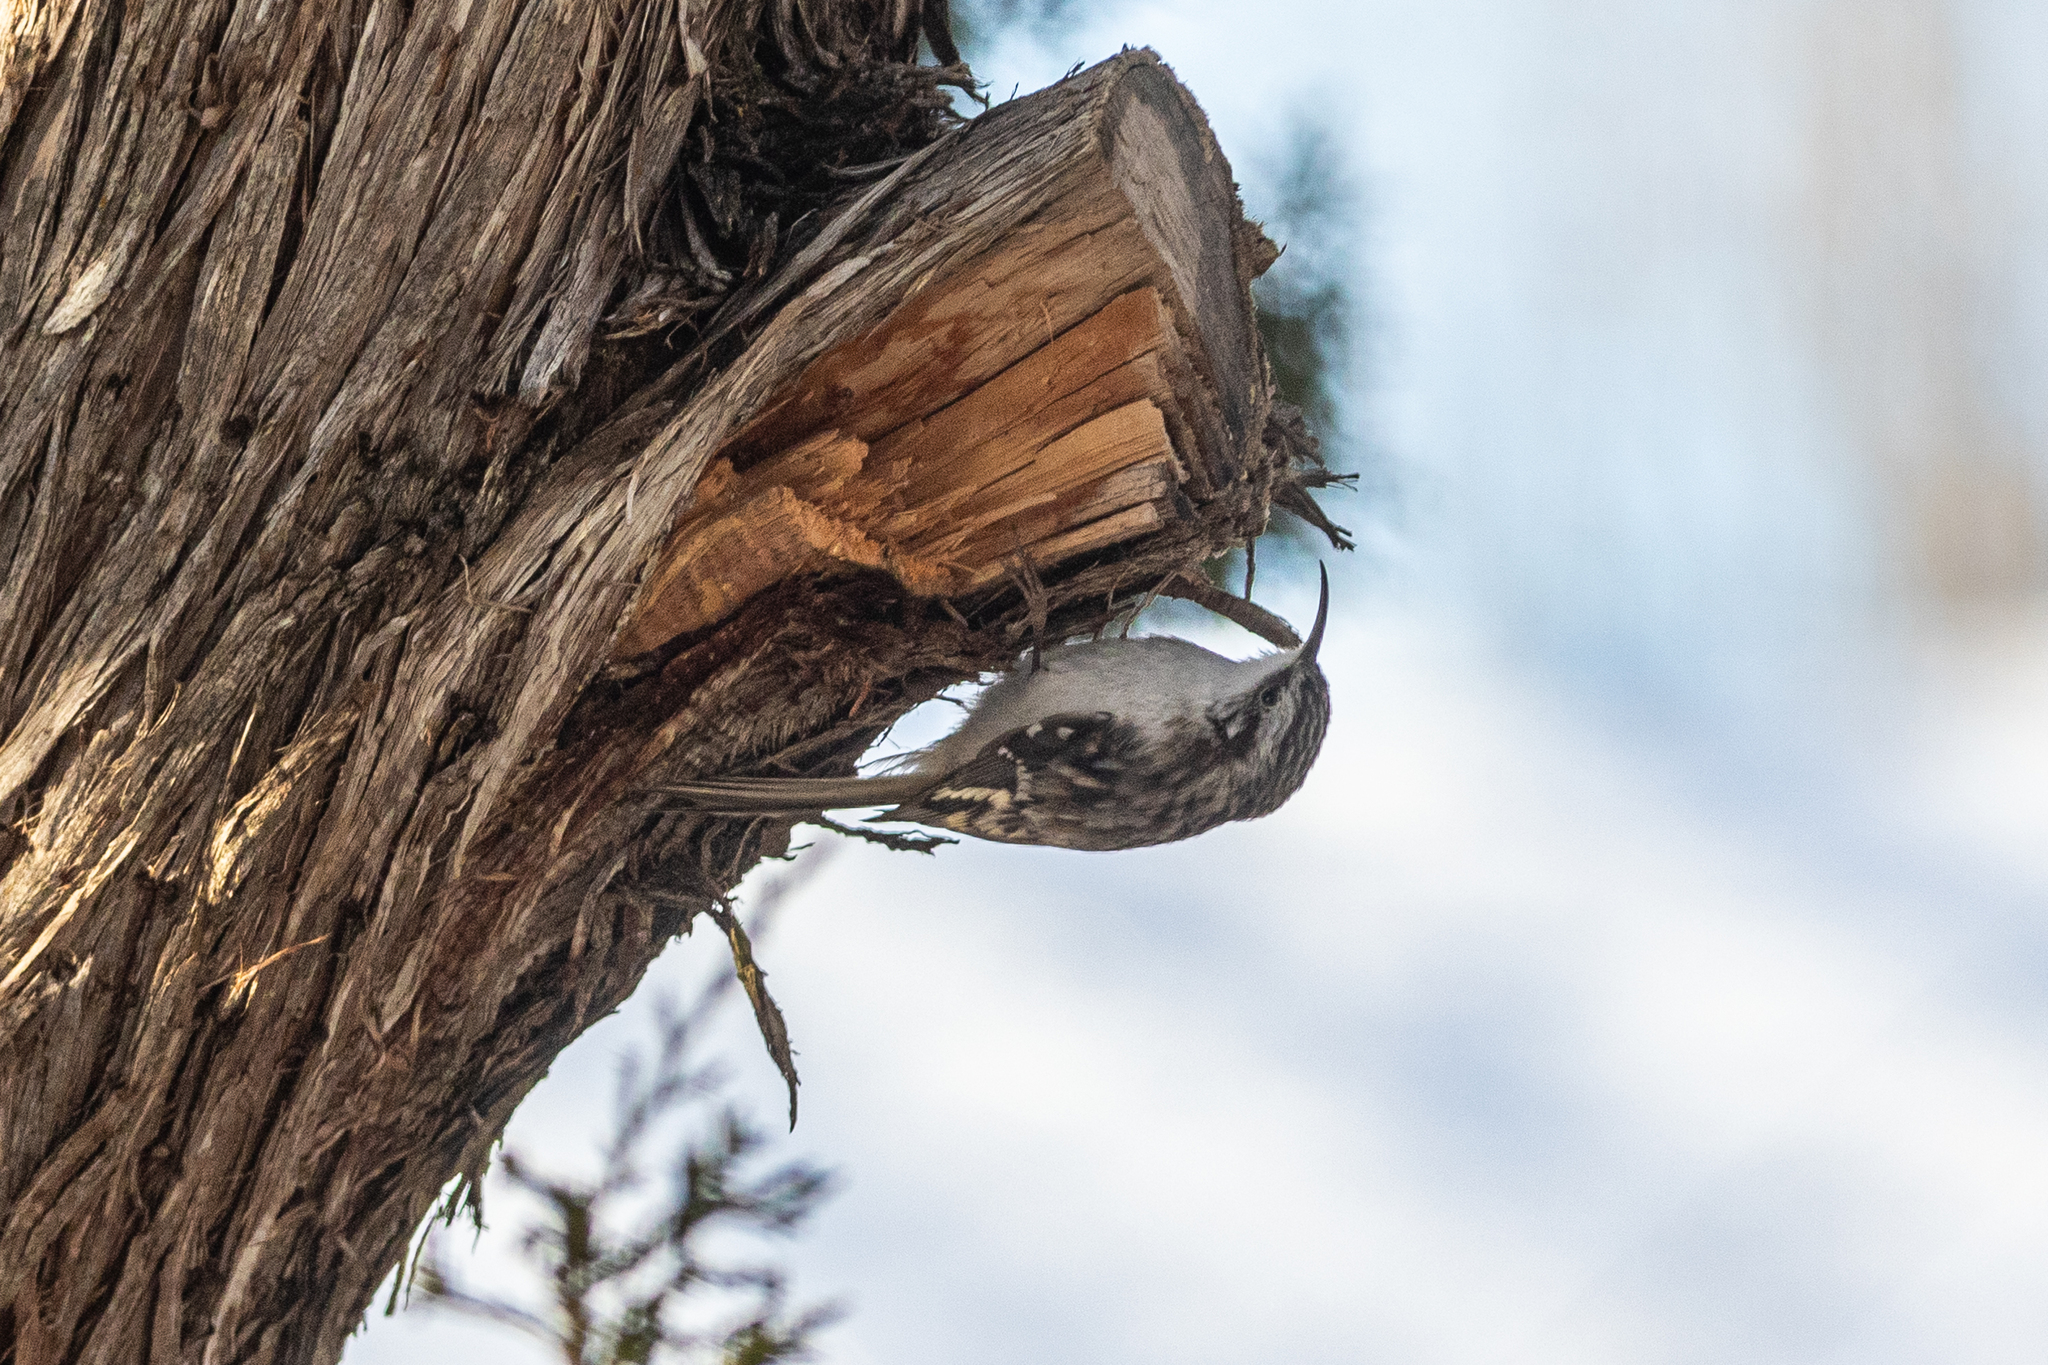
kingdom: Animalia
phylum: Chordata
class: Aves
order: Passeriformes
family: Certhiidae
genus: Certhia
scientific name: Certhia americana
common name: Brown creeper
